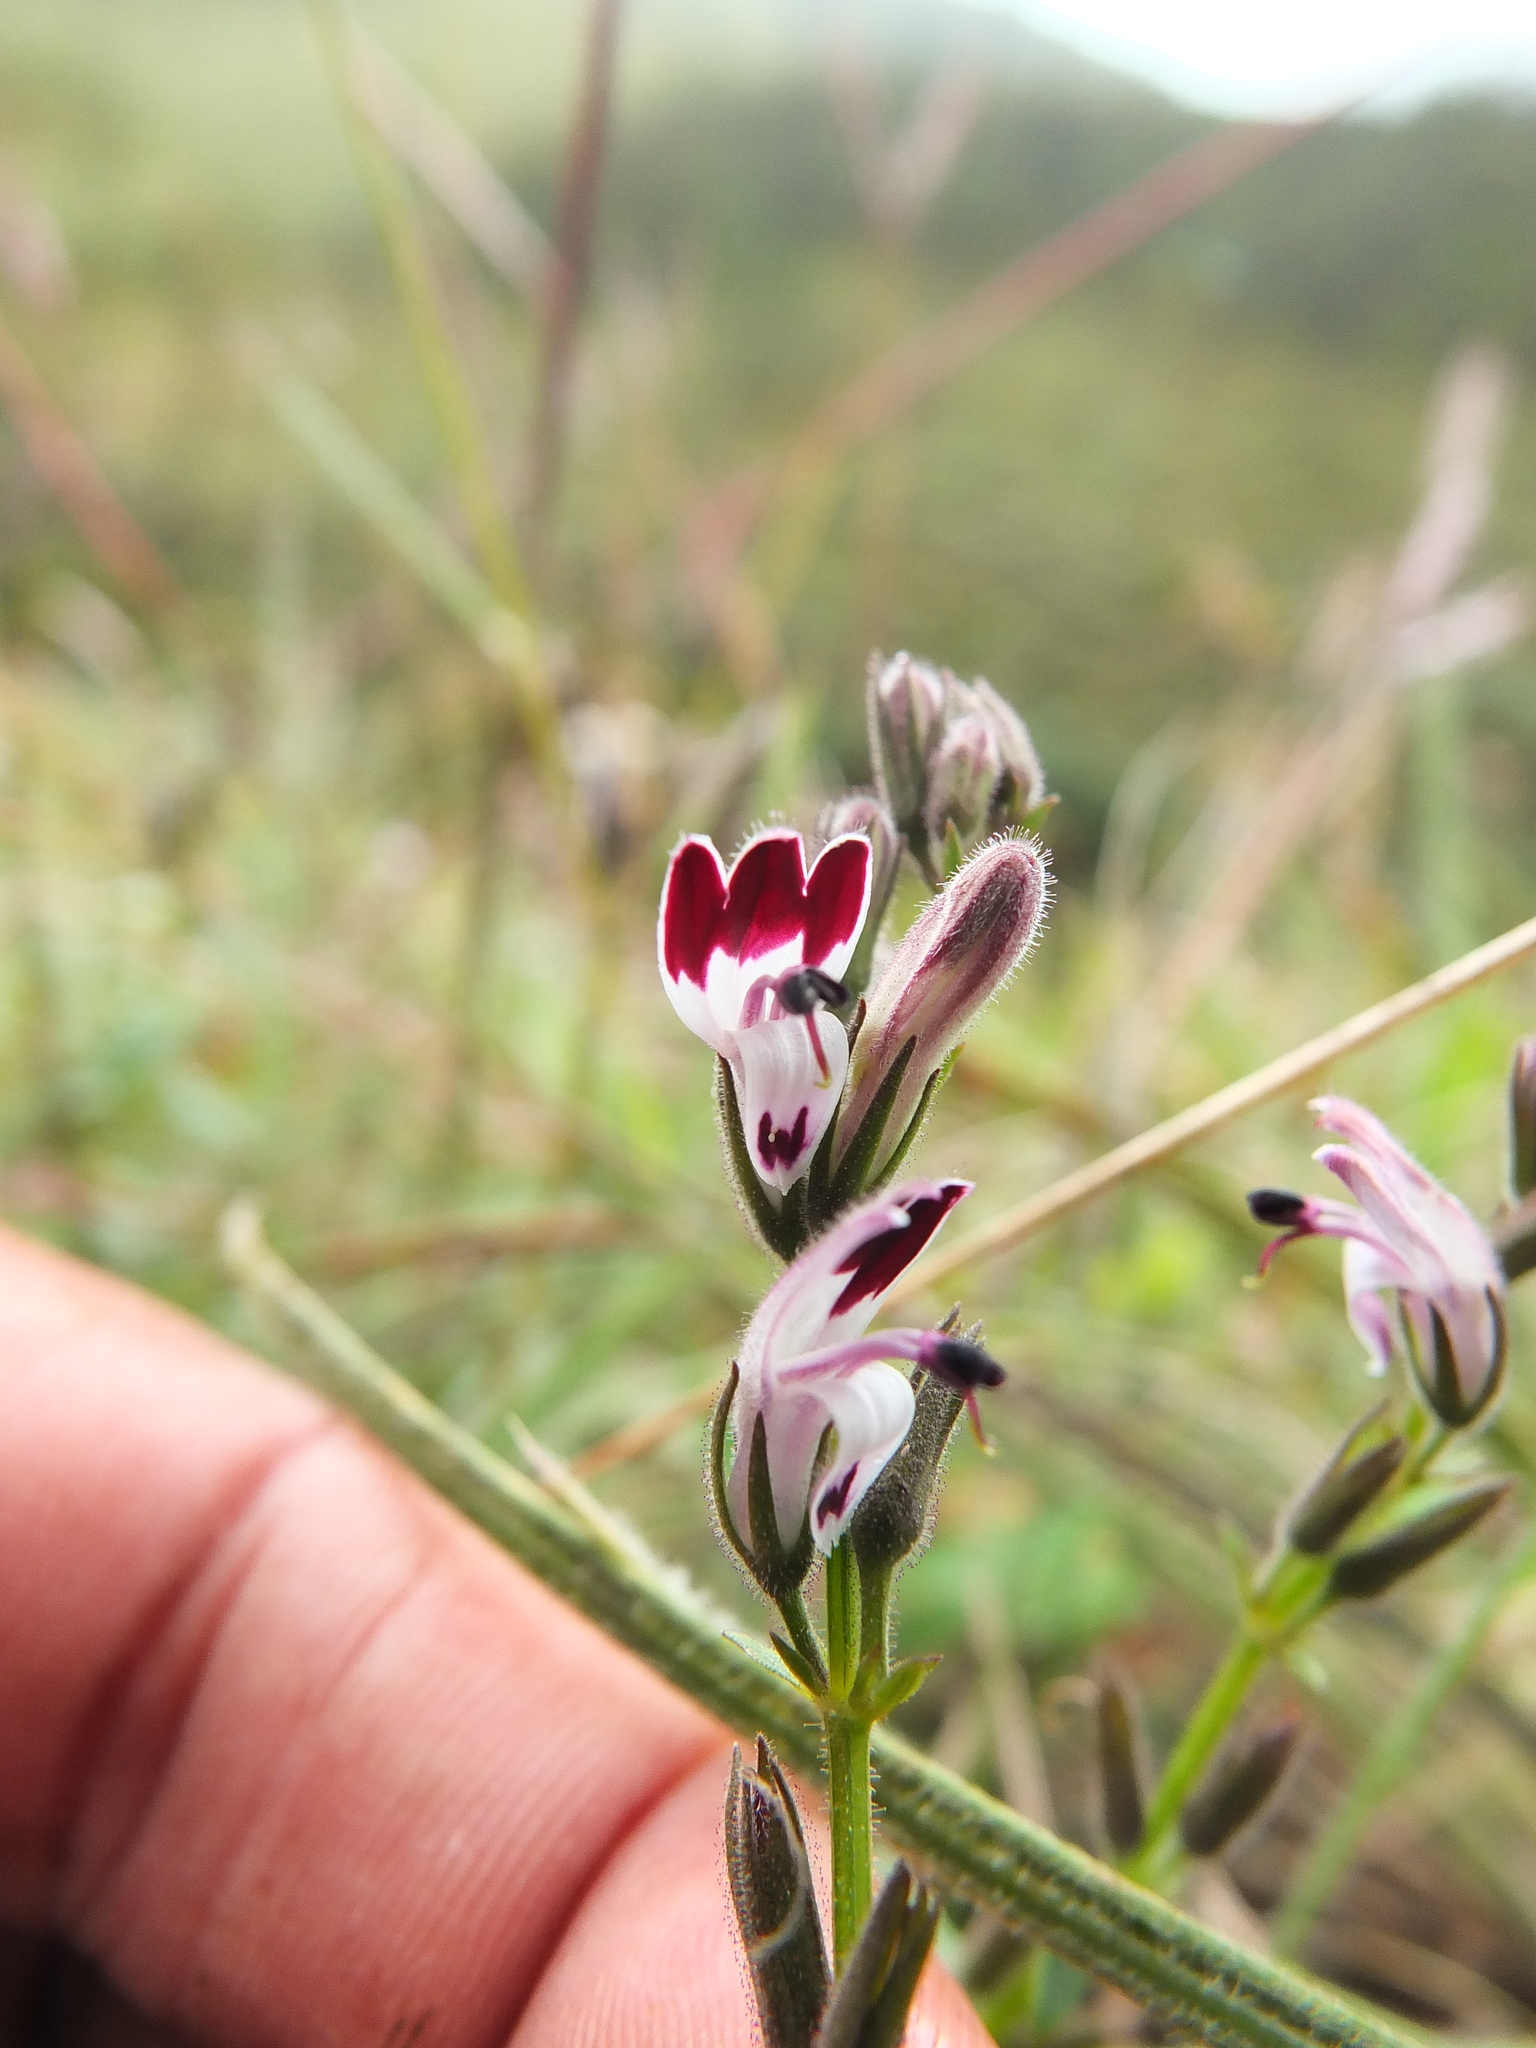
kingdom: Plantae
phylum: Tracheophyta
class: Magnoliopsida
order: Lamiales
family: Acanthaceae
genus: Andrographis
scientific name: Andrographis lobelioides
